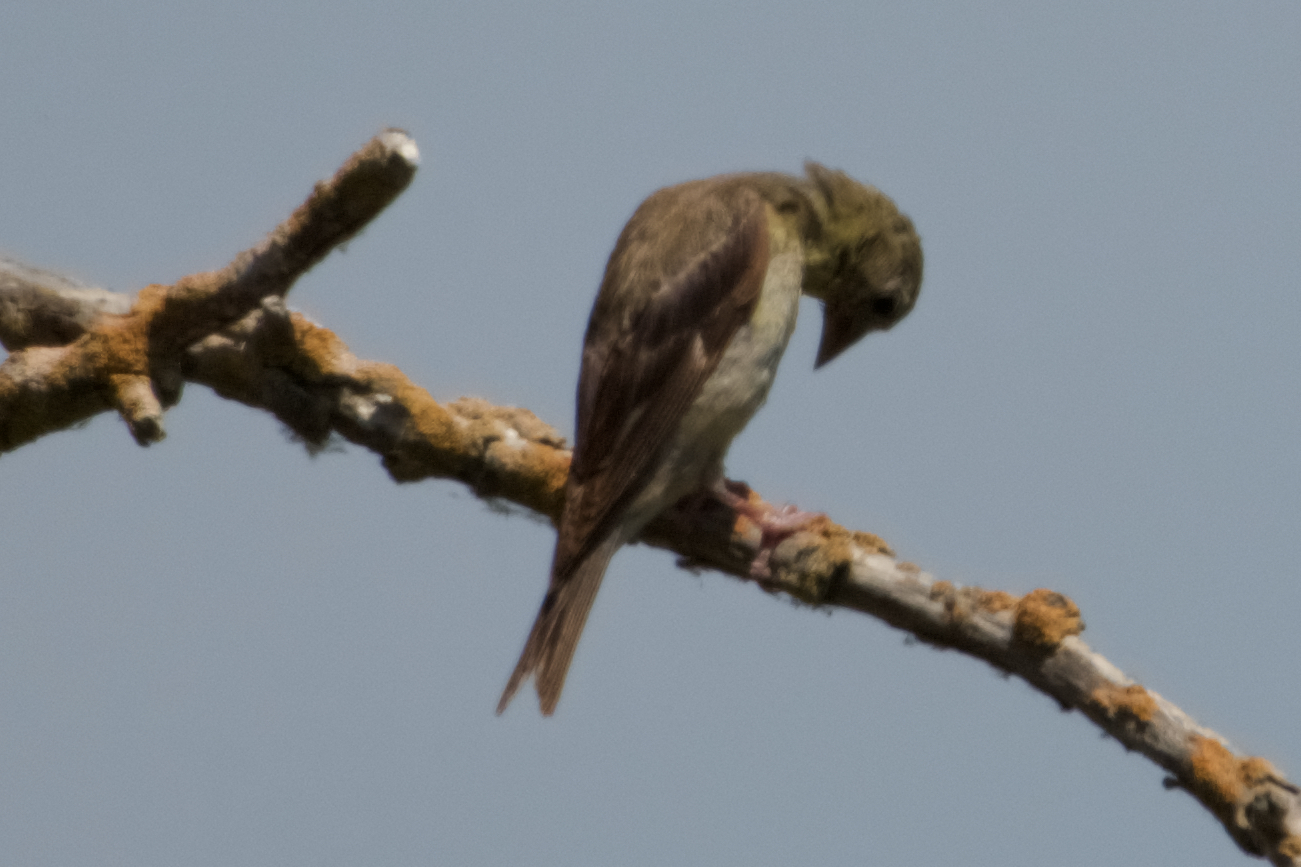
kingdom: Animalia
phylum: Chordata
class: Aves
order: Passeriformes
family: Fringillidae
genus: Spinus
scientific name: Spinus psaltria
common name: Lesser goldfinch
